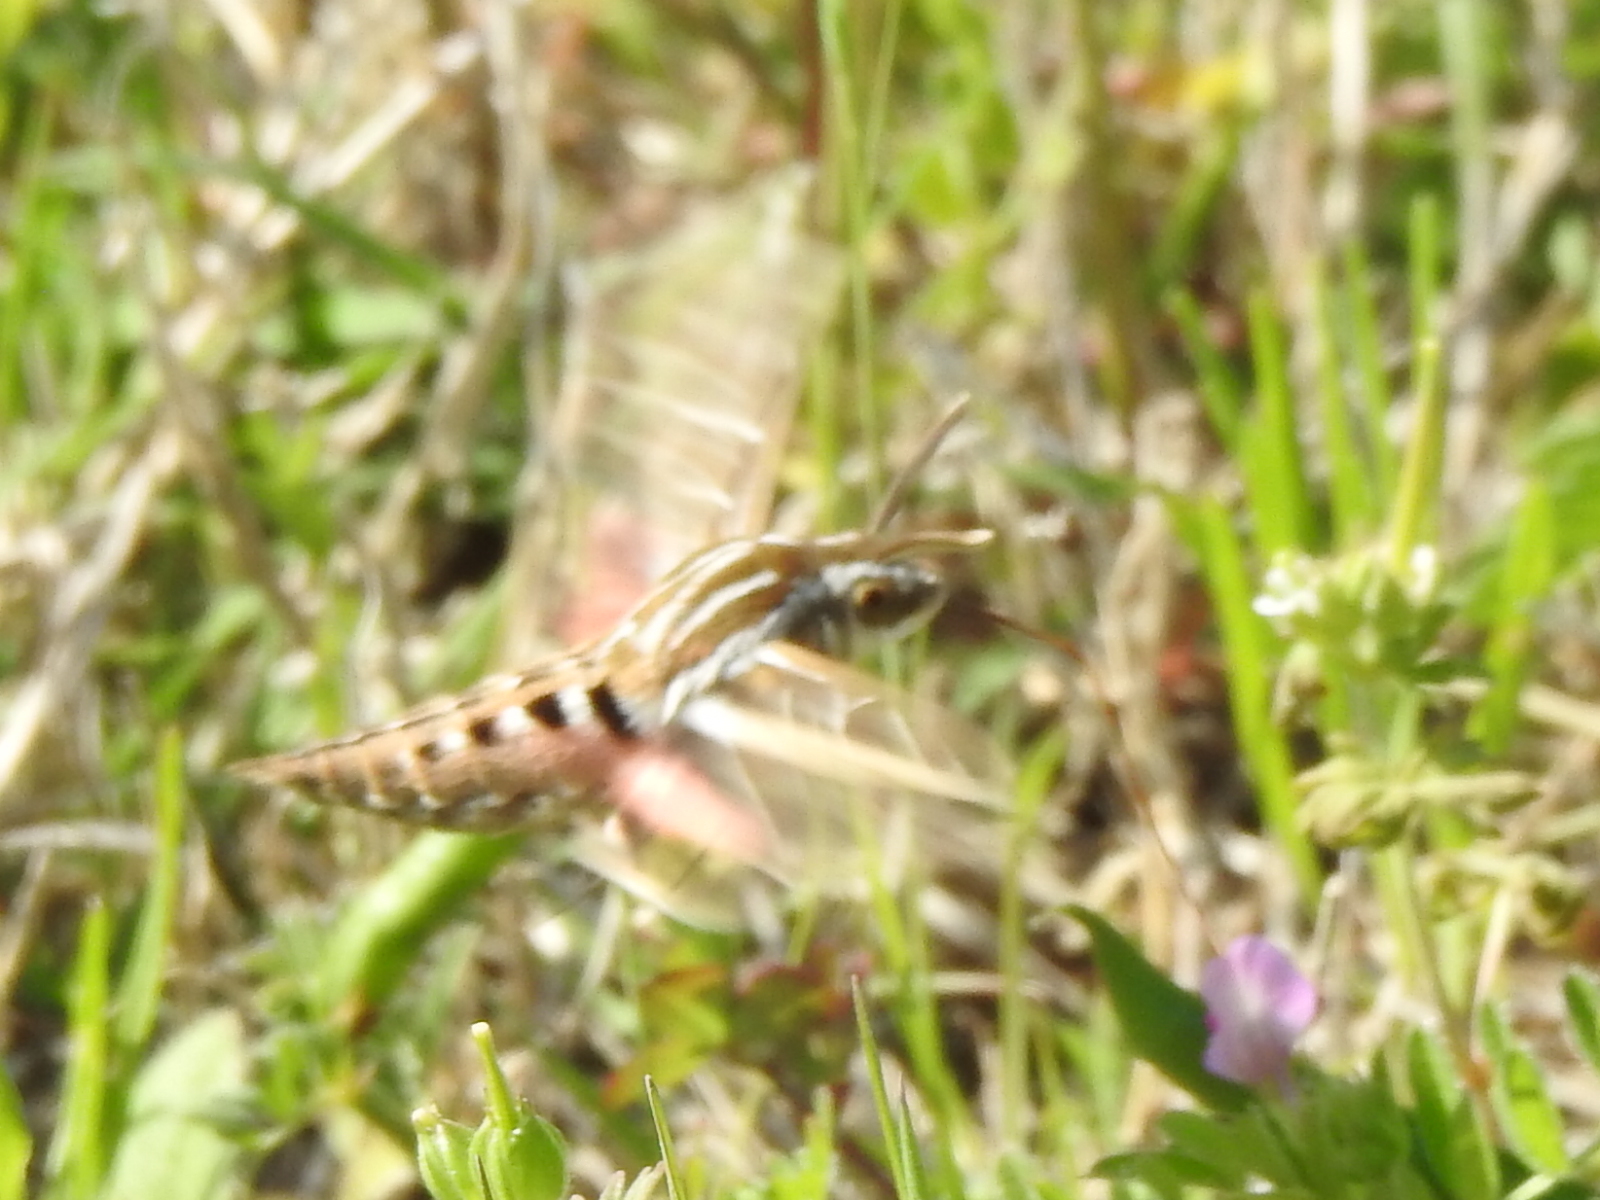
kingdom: Animalia
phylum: Arthropoda
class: Insecta
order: Lepidoptera
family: Sphingidae
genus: Hyles
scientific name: Hyles lineata
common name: White-lined sphinx
